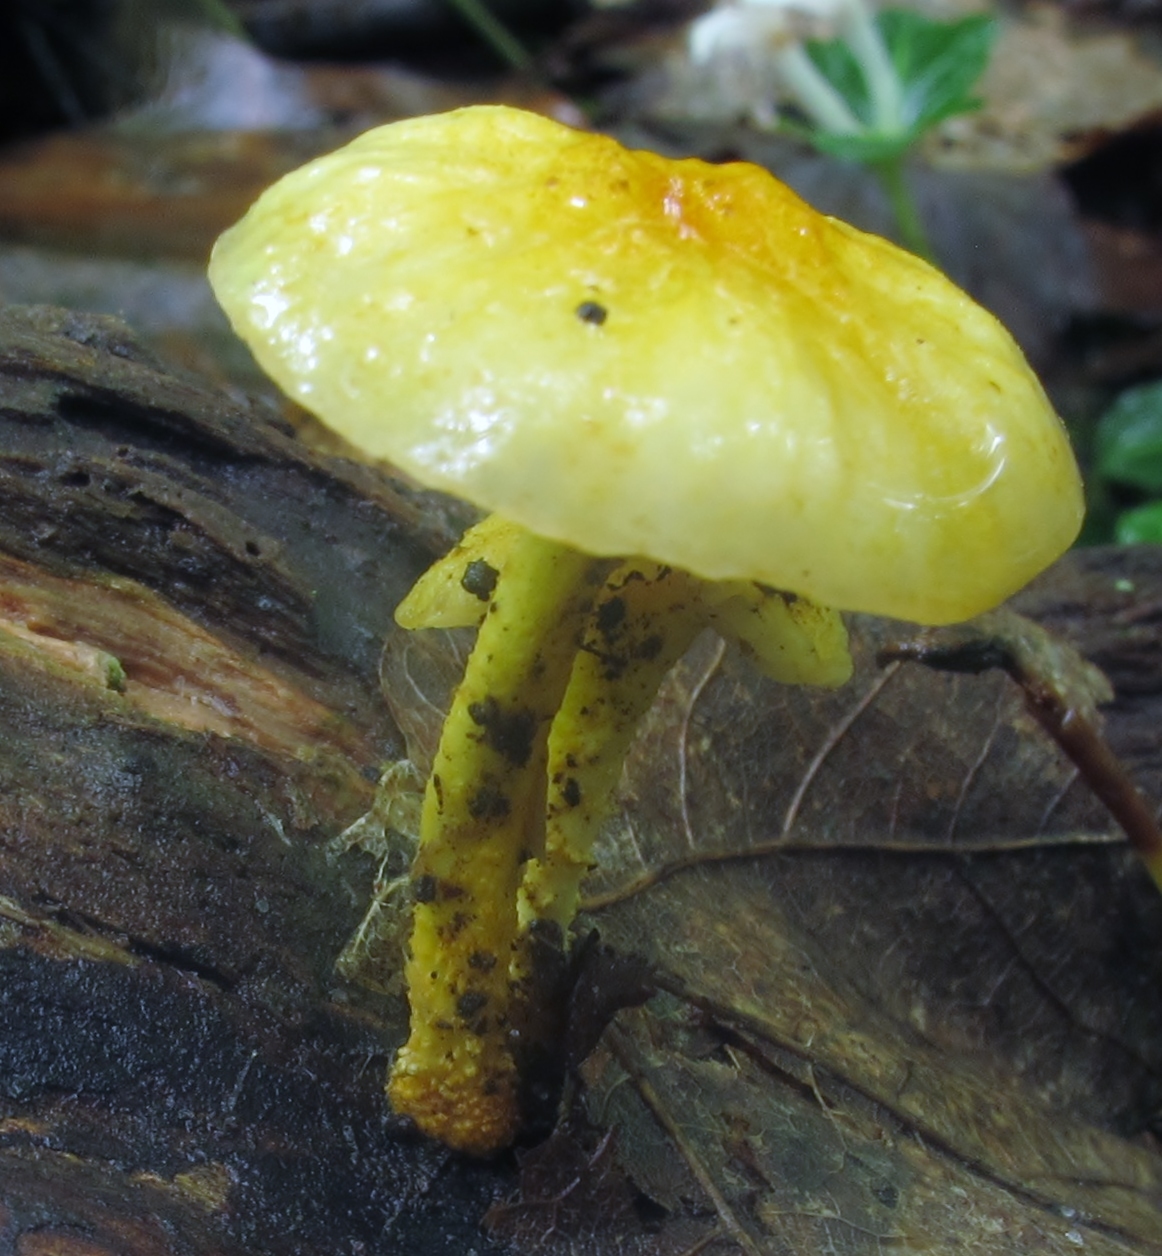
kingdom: Fungi
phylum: Basidiomycota
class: Agaricomycetes
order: Agaricales
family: Physalacriaceae
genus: Cyptotrama
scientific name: Cyptotrama chrysopepla
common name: Golden coincap
